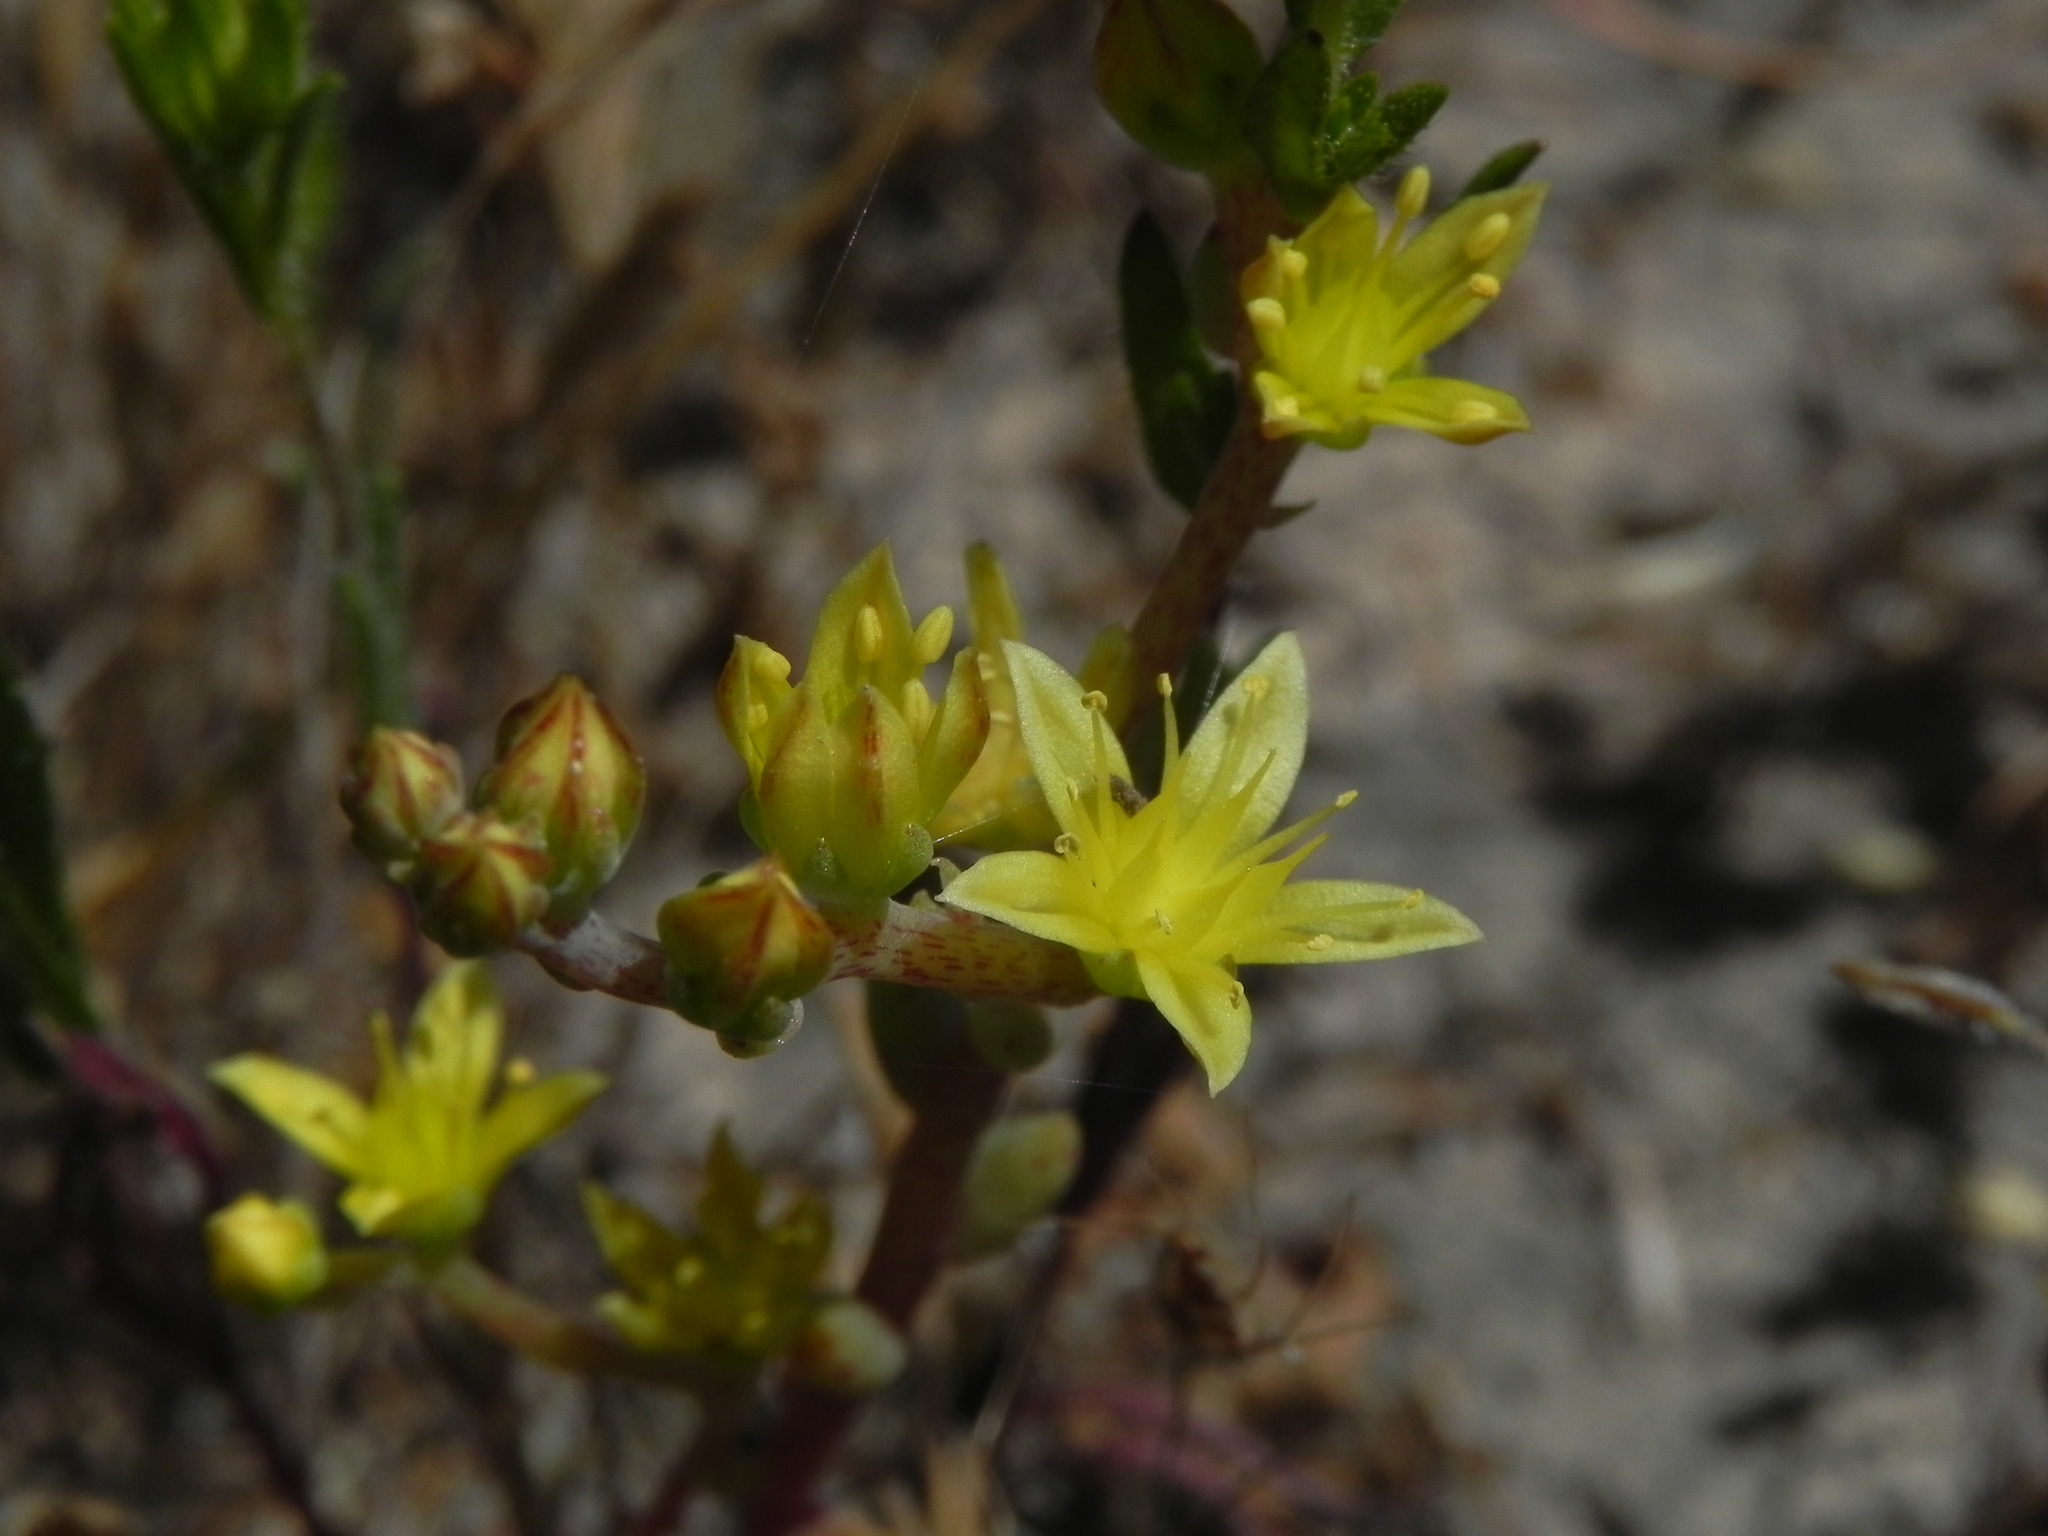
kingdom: Plantae
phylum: Tracheophyta
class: Magnoliopsida
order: Saxifragales
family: Crassulaceae
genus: Dudleya
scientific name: Dudleya variegata
